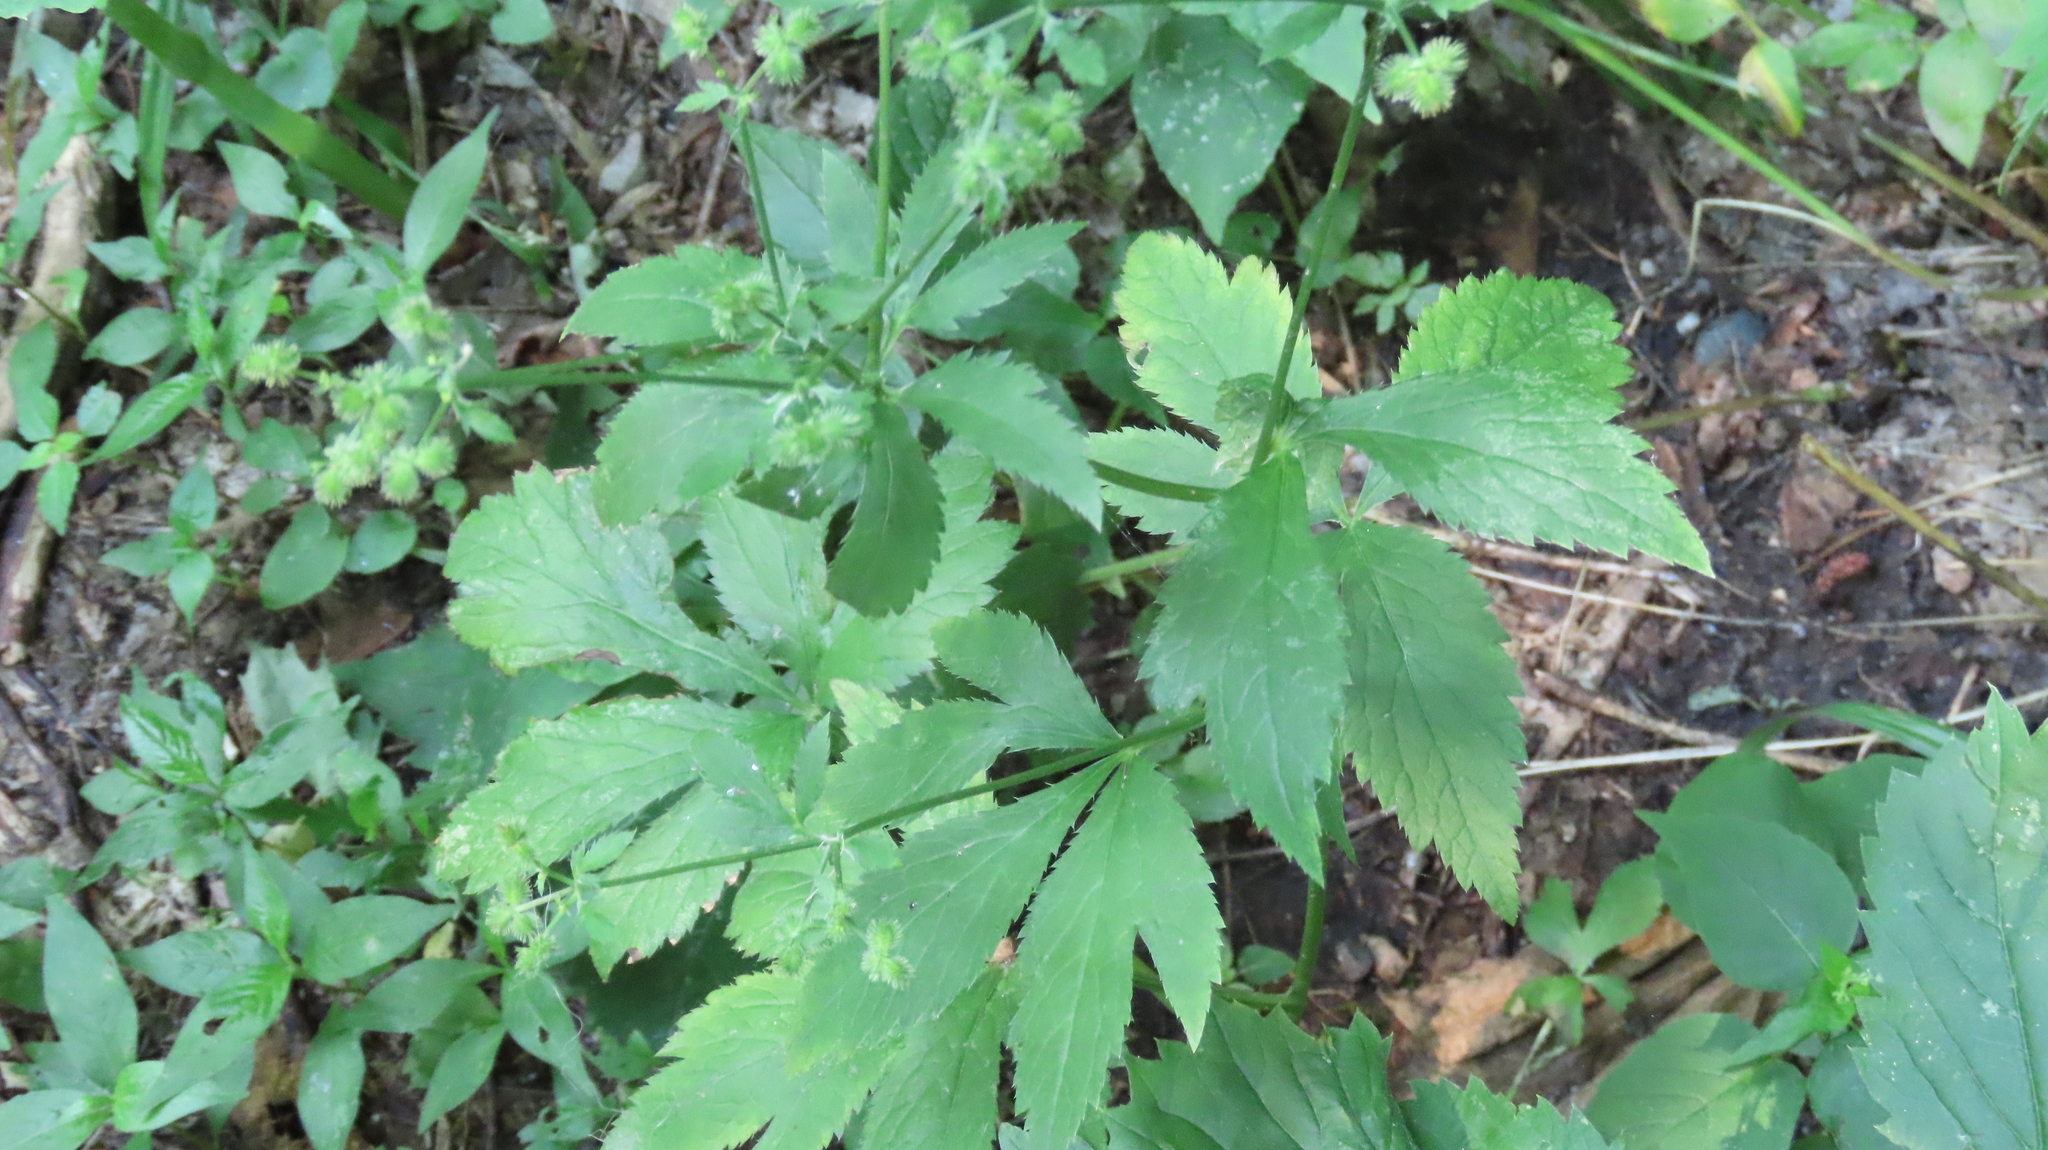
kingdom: Plantae
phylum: Tracheophyta
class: Magnoliopsida
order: Apiales
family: Apiaceae
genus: Sanicula
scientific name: Sanicula canadensis
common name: Canada sanicle
